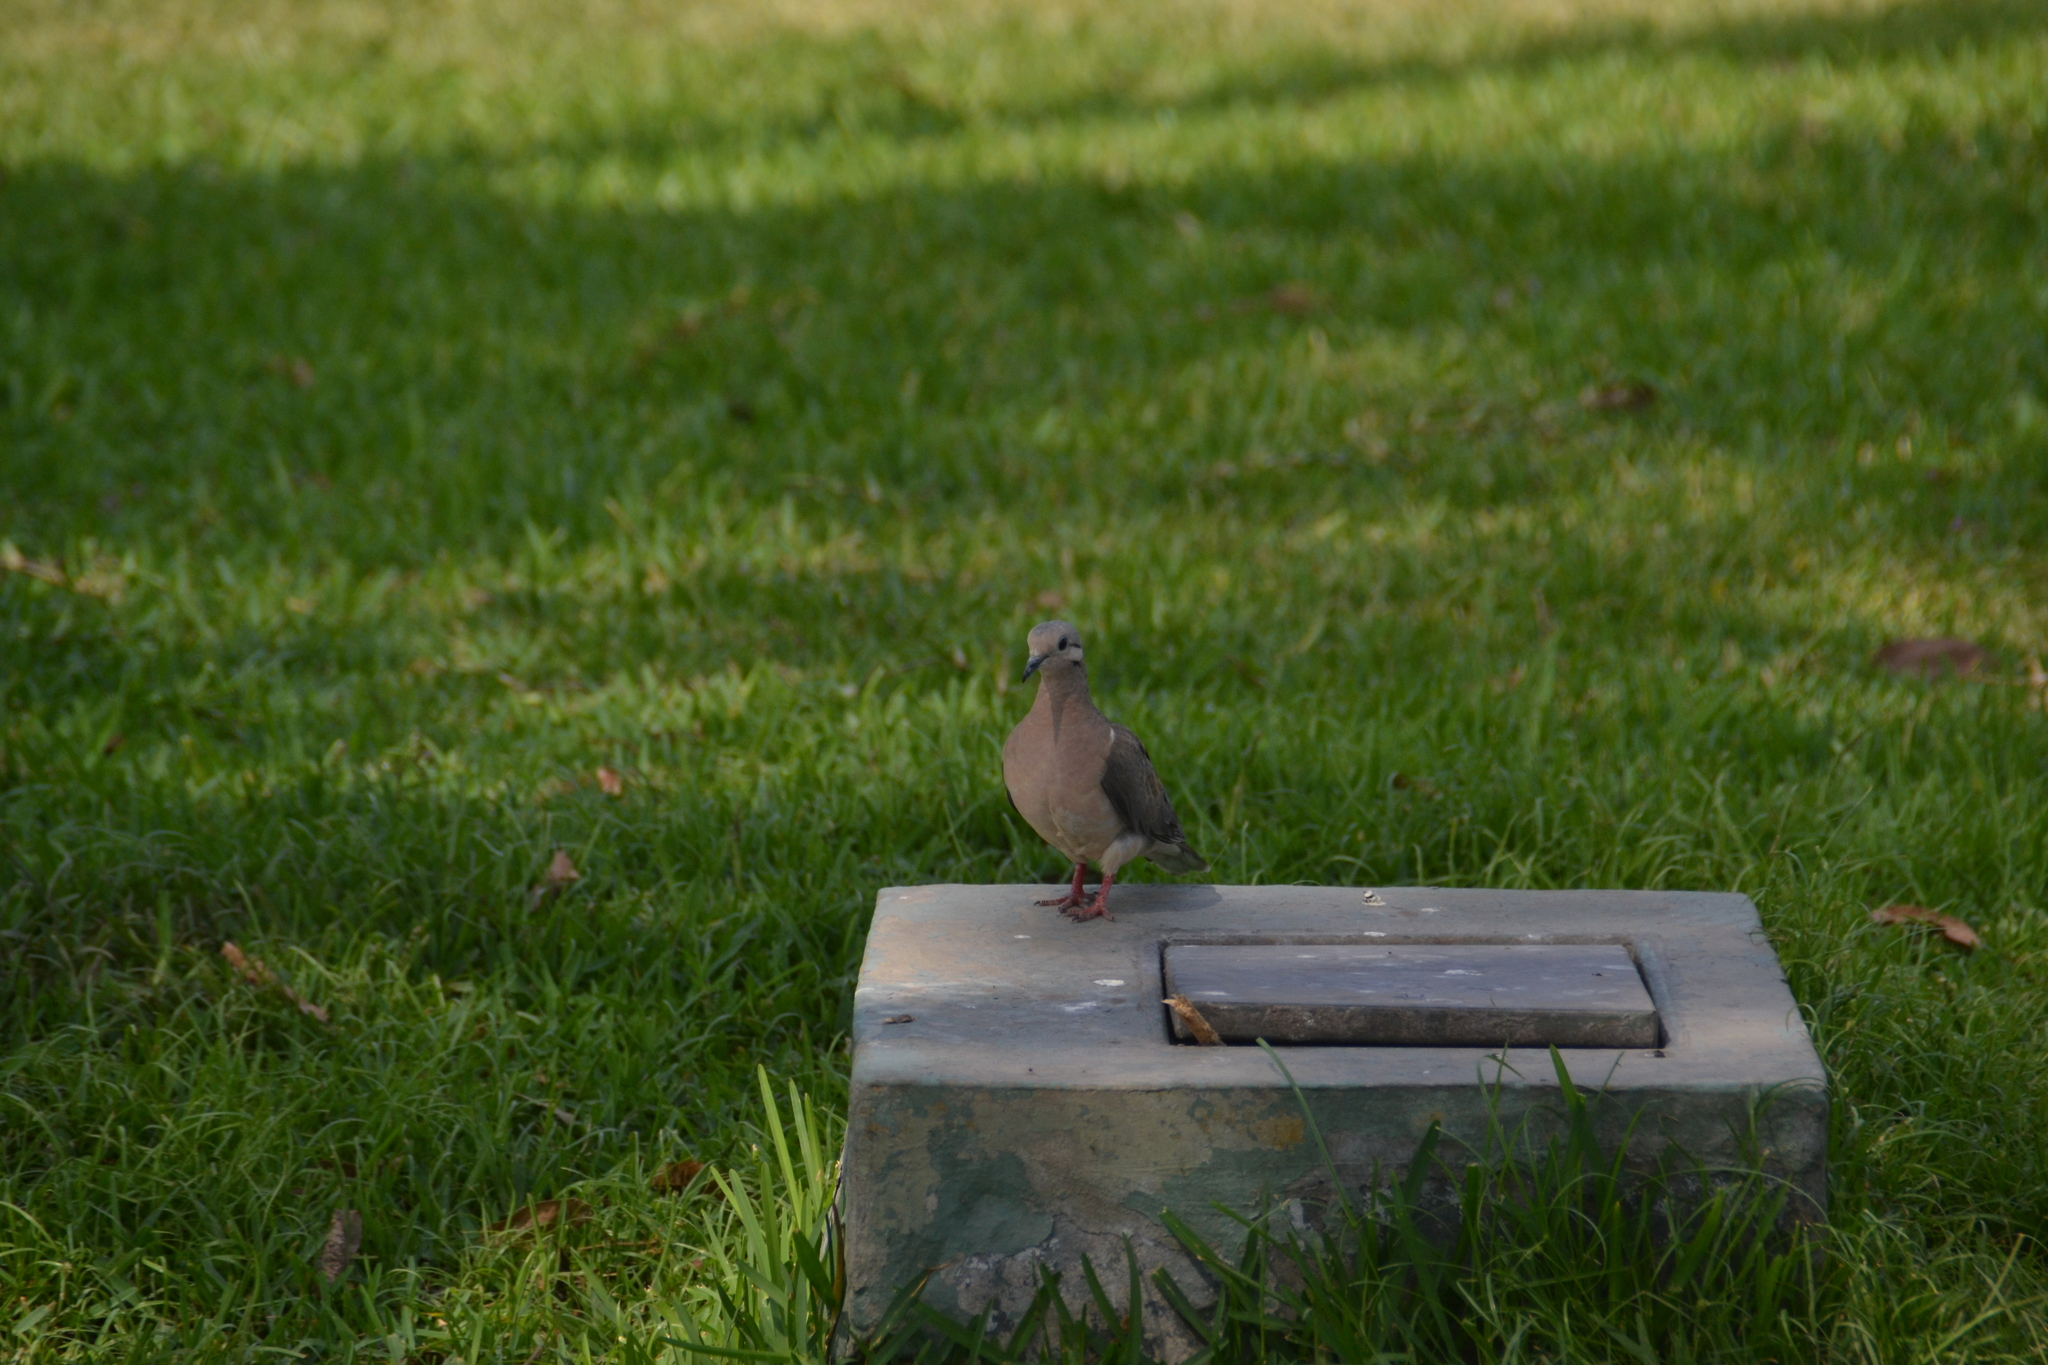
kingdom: Animalia
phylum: Chordata
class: Aves
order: Columbiformes
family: Columbidae
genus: Zenaida
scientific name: Zenaida auriculata
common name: Eared dove
